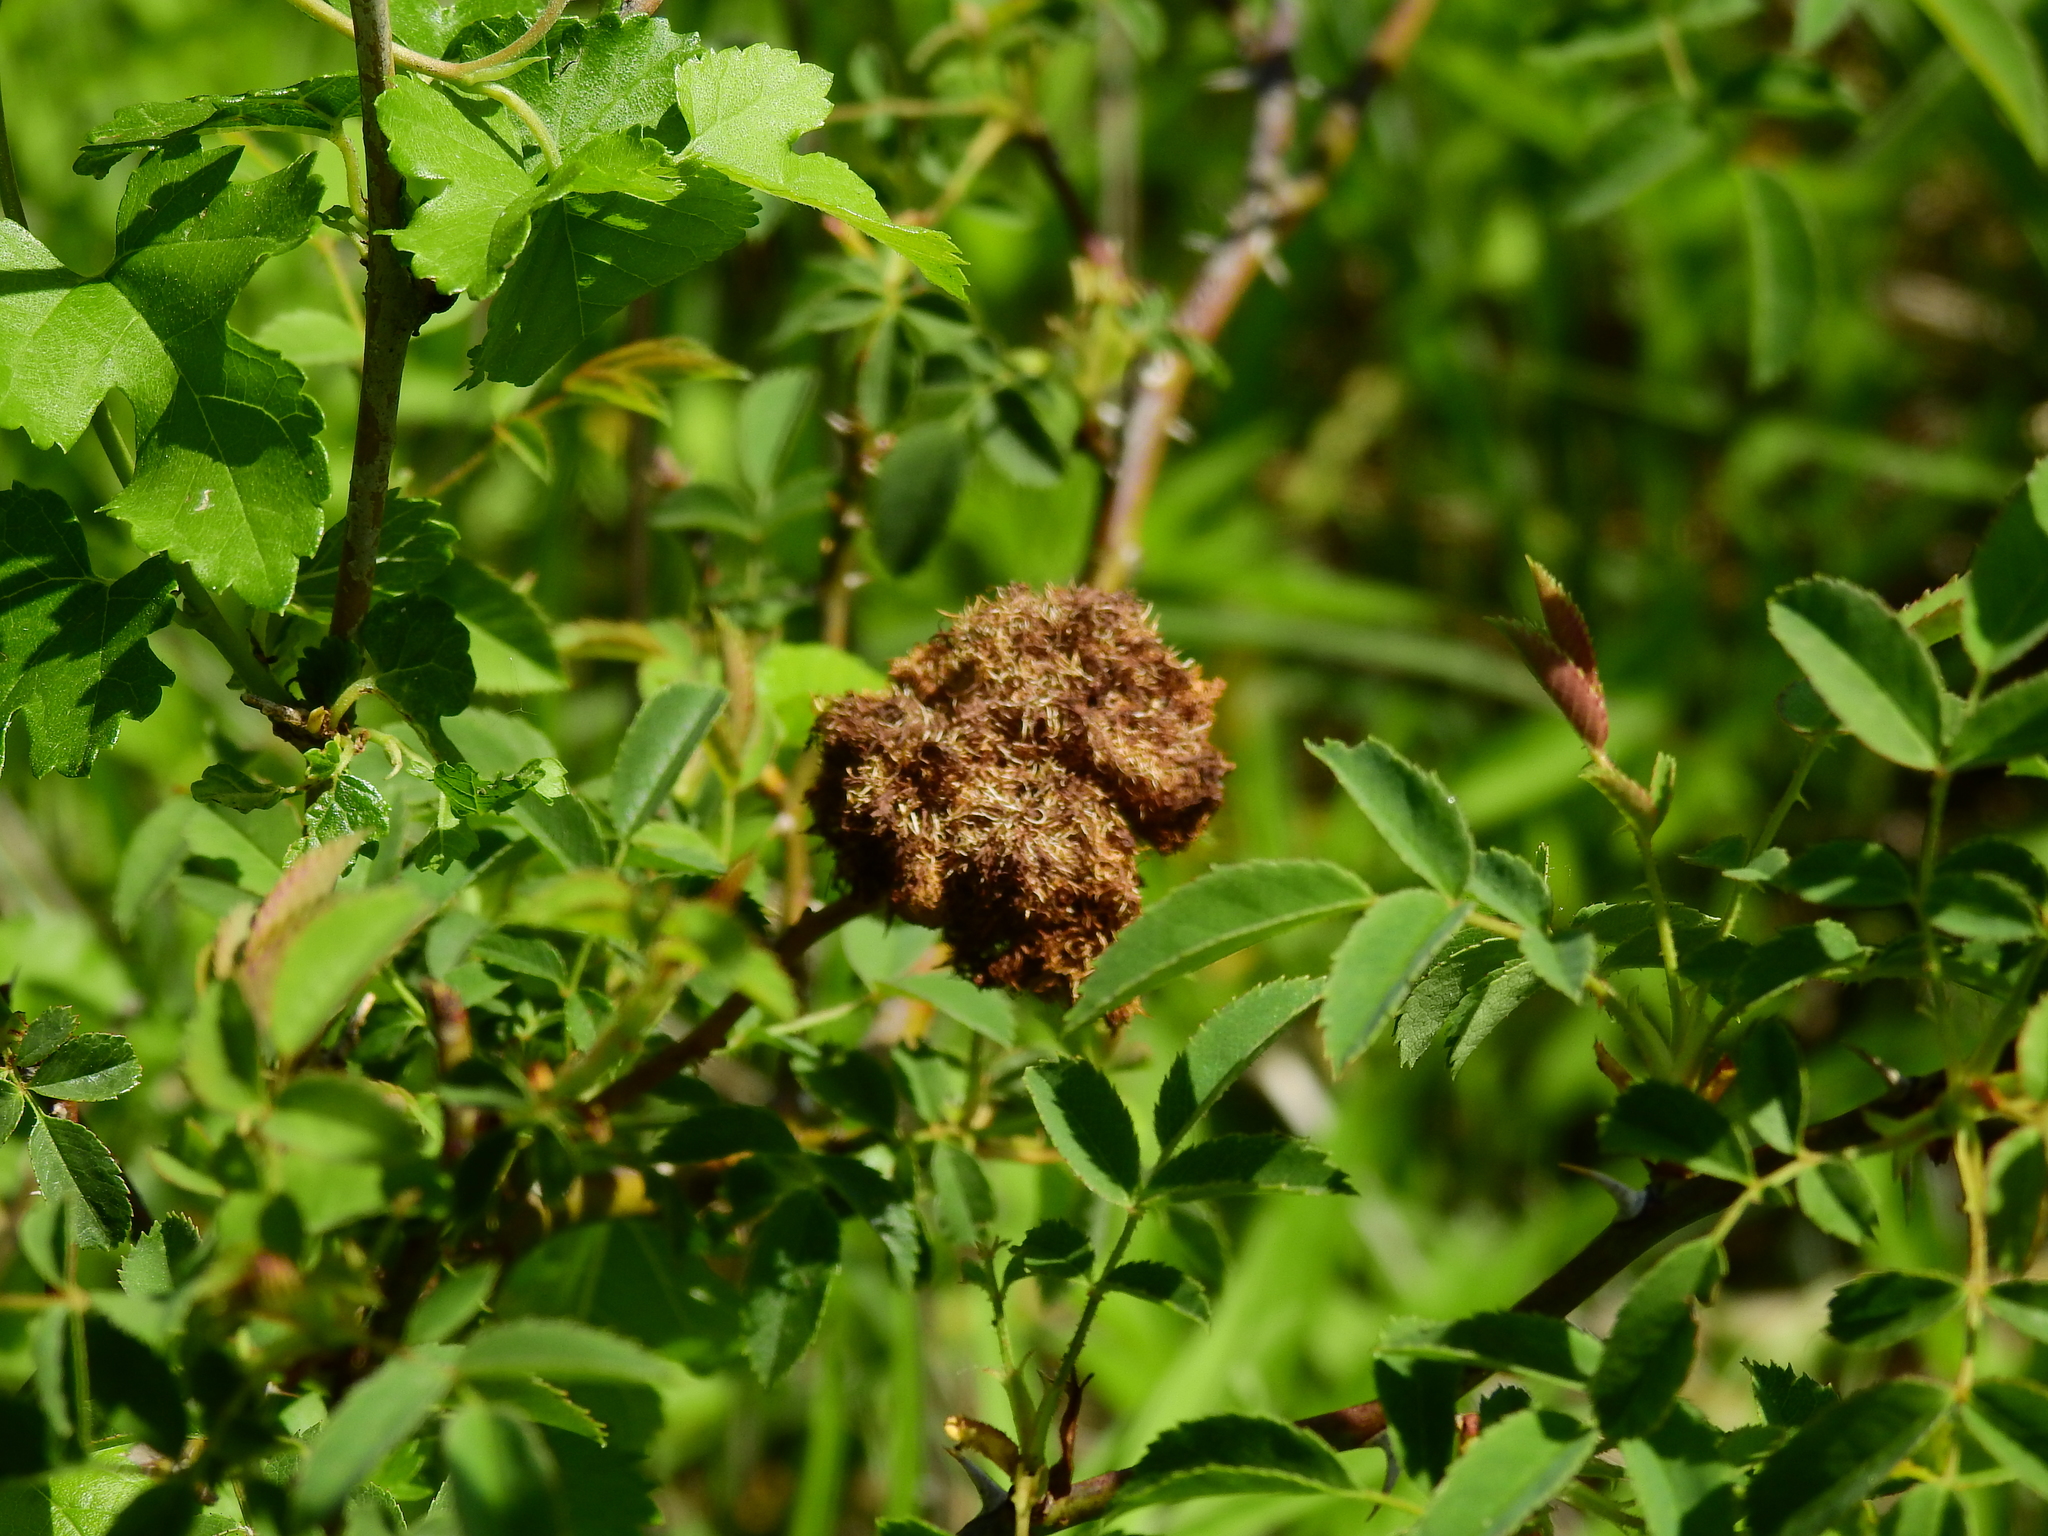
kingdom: Animalia
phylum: Arthropoda
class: Insecta
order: Hymenoptera
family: Cynipidae
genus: Diplolepis
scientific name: Diplolepis rosae
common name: Bedeguar gall
